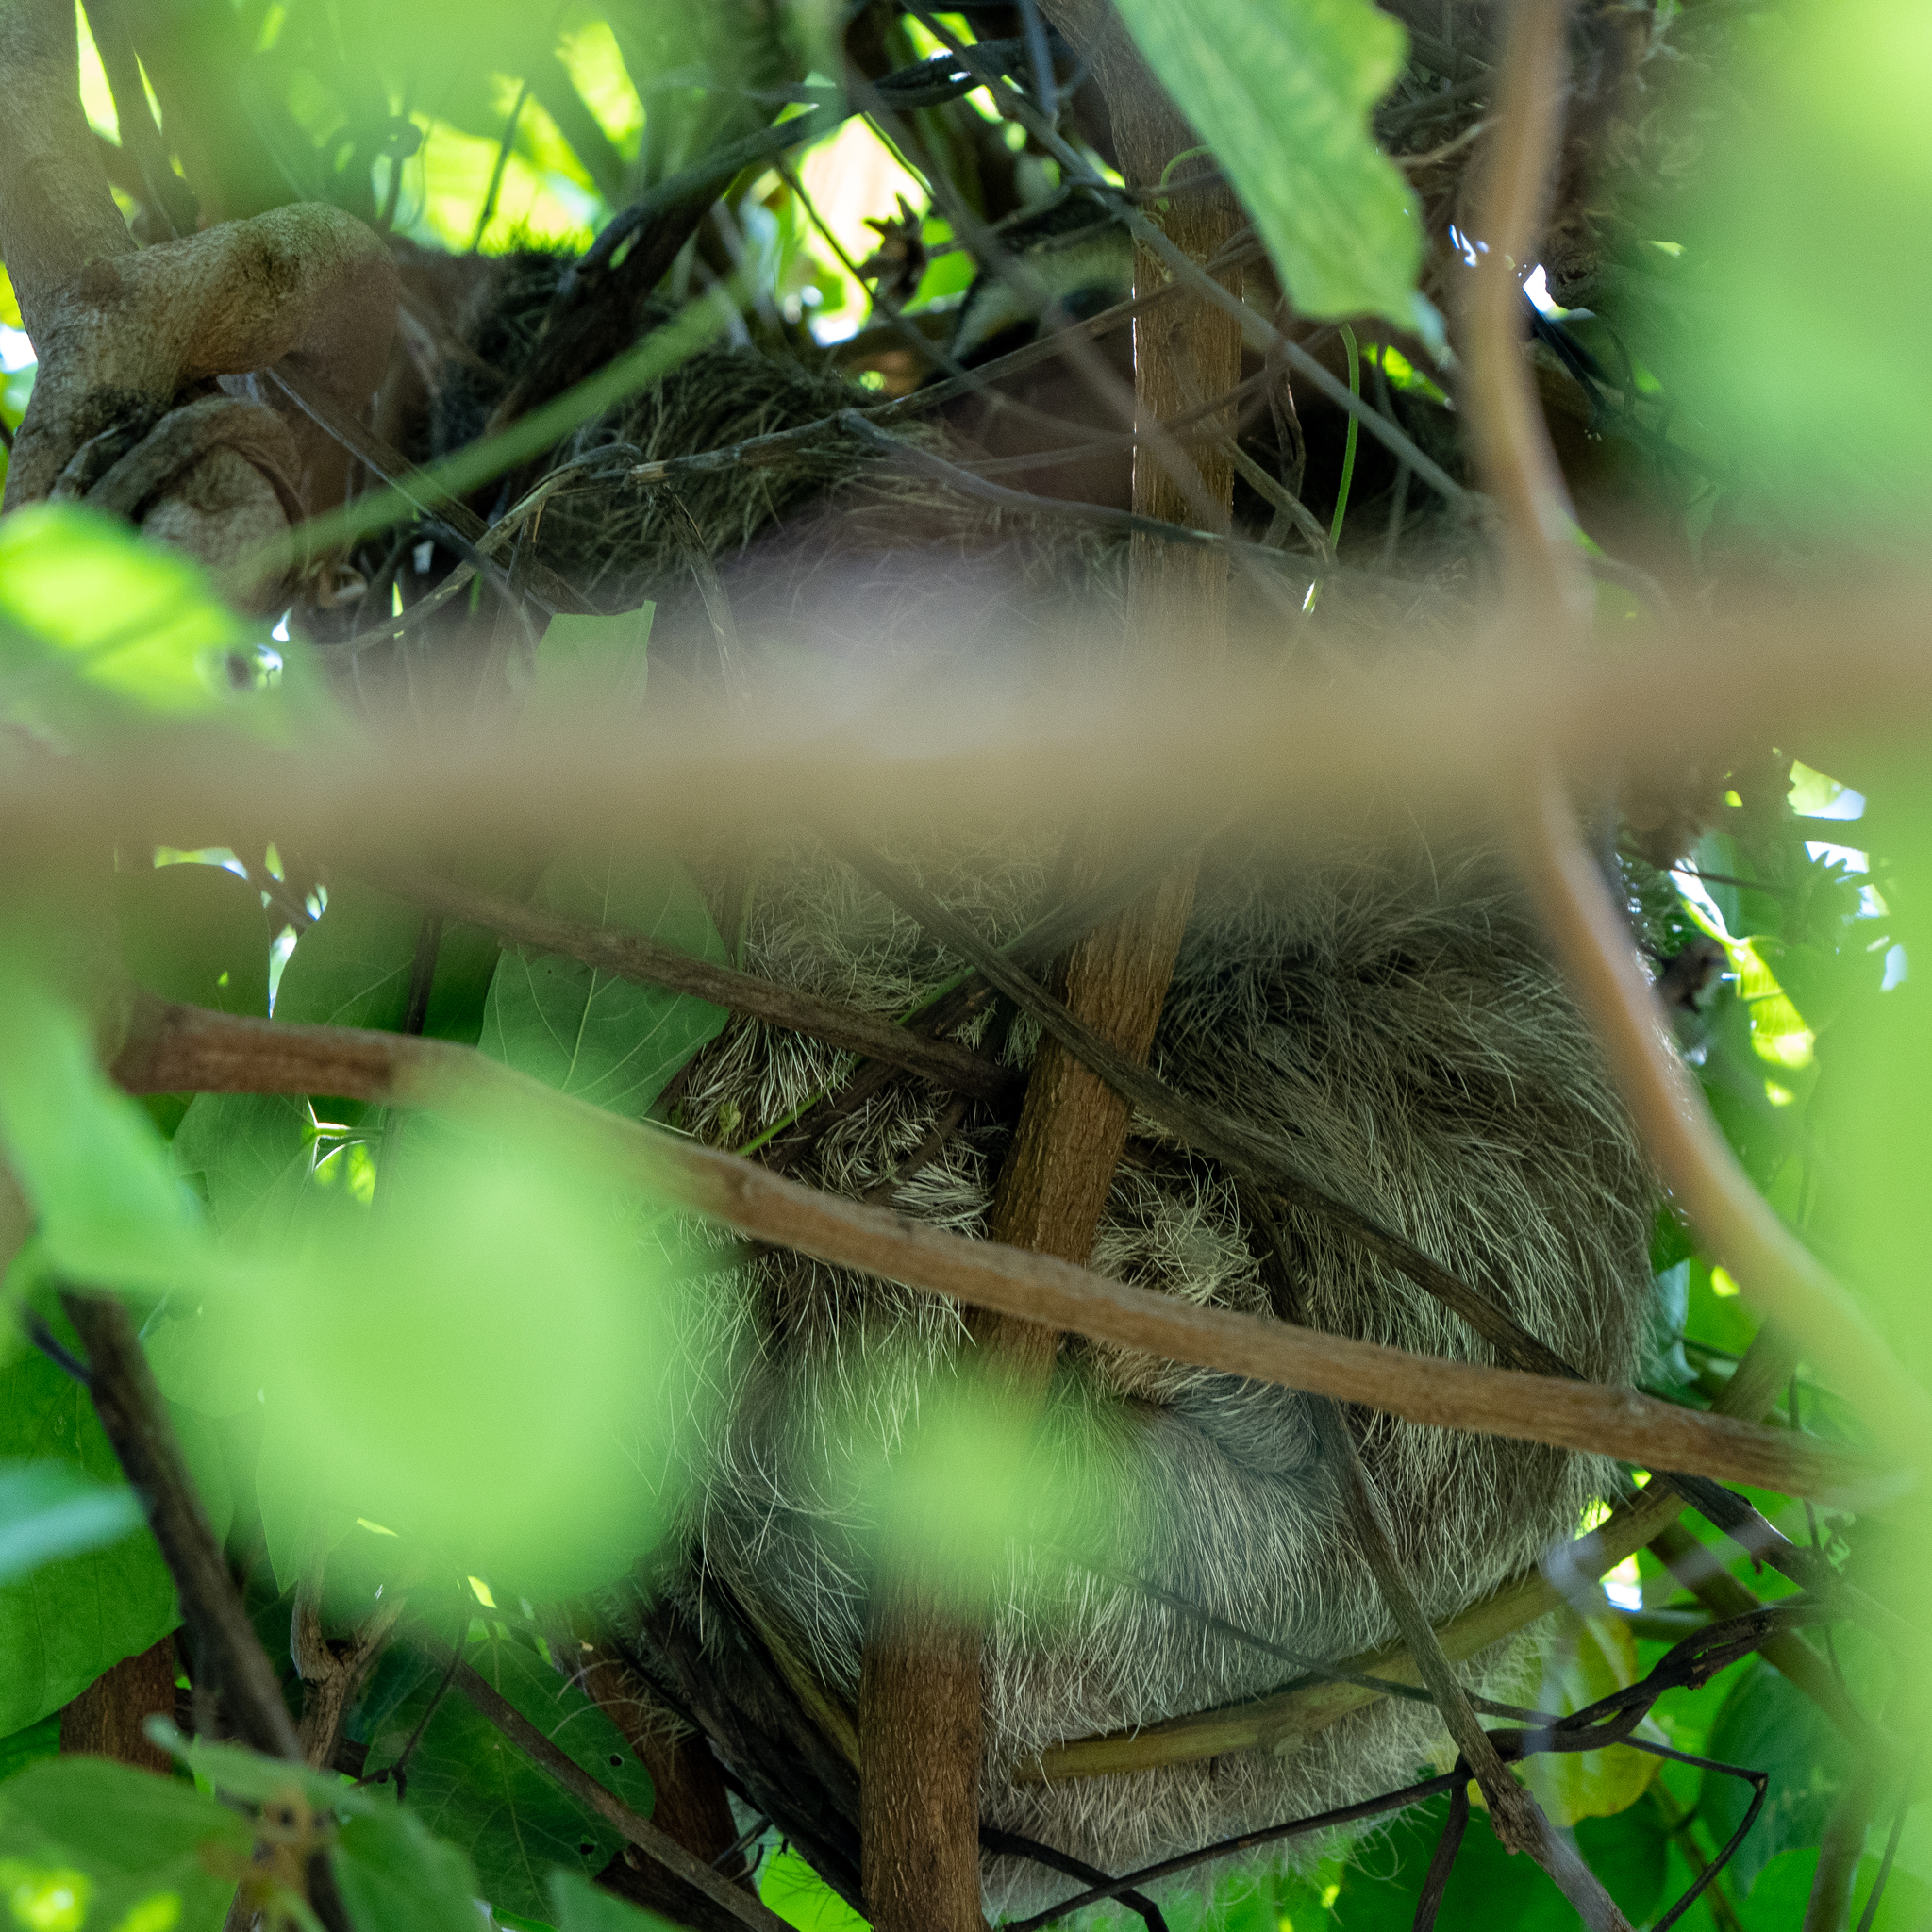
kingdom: Animalia
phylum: Chordata
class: Mammalia
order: Pilosa
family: Bradypodidae
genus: Bradypus
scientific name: Bradypus variegatus
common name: Brown-throated three-toed sloth
